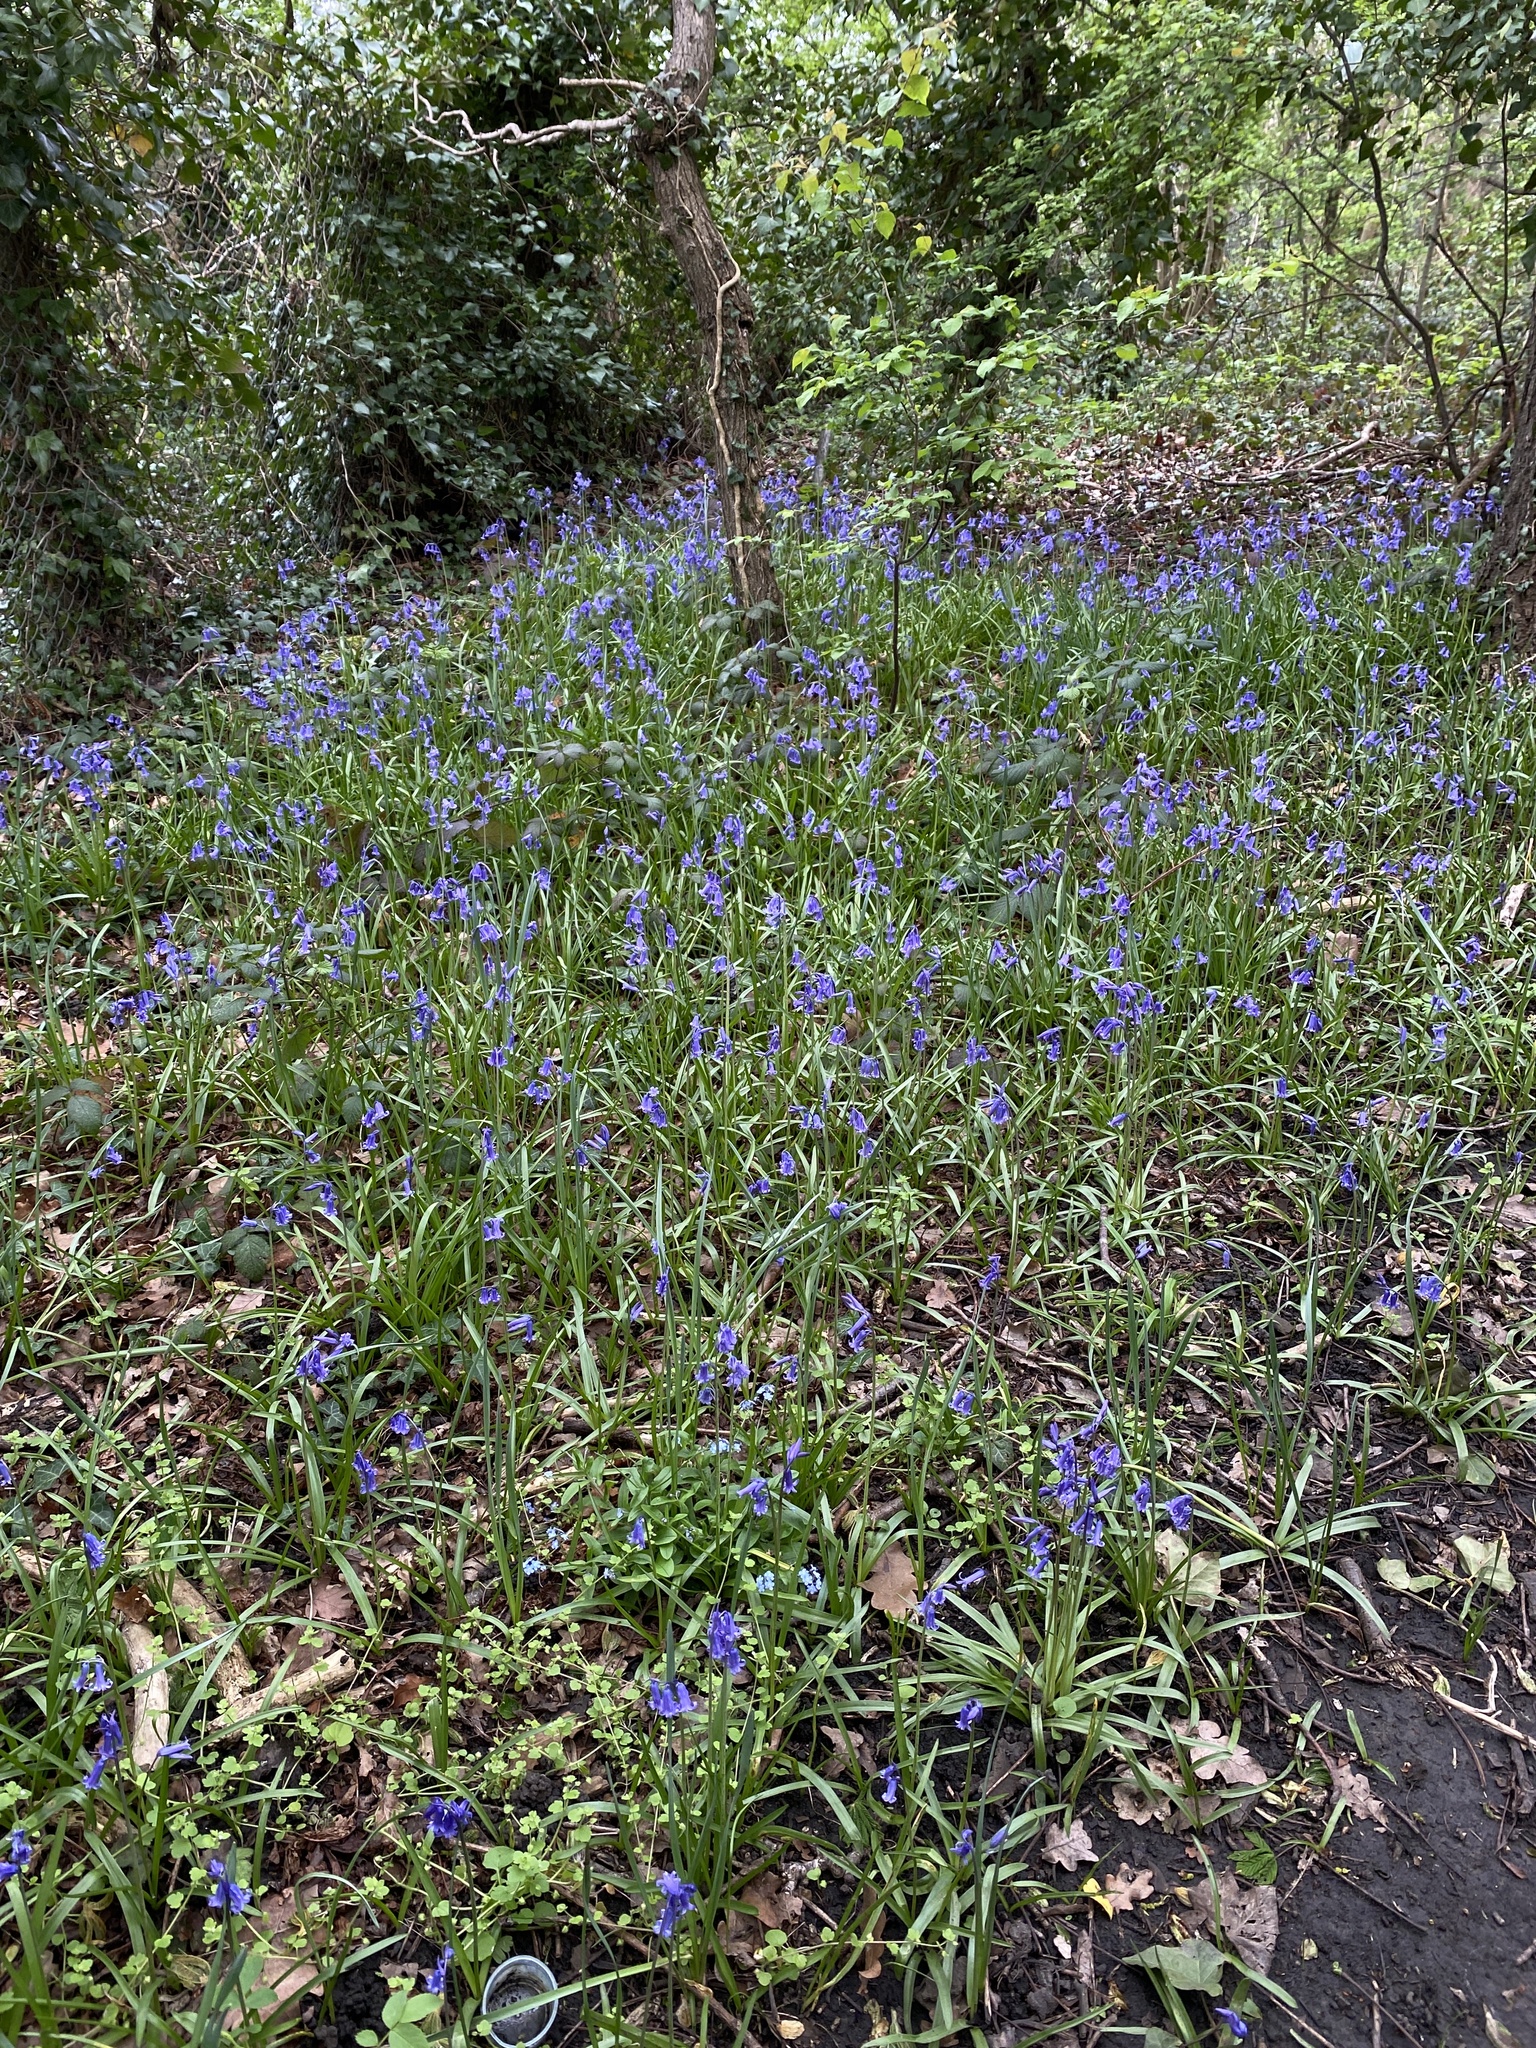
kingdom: Plantae
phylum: Tracheophyta
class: Liliopsida
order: Asparagales
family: Asparagaceae
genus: Hyacinthoides
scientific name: Hyacinthoides non-scripta
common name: Bluebell
